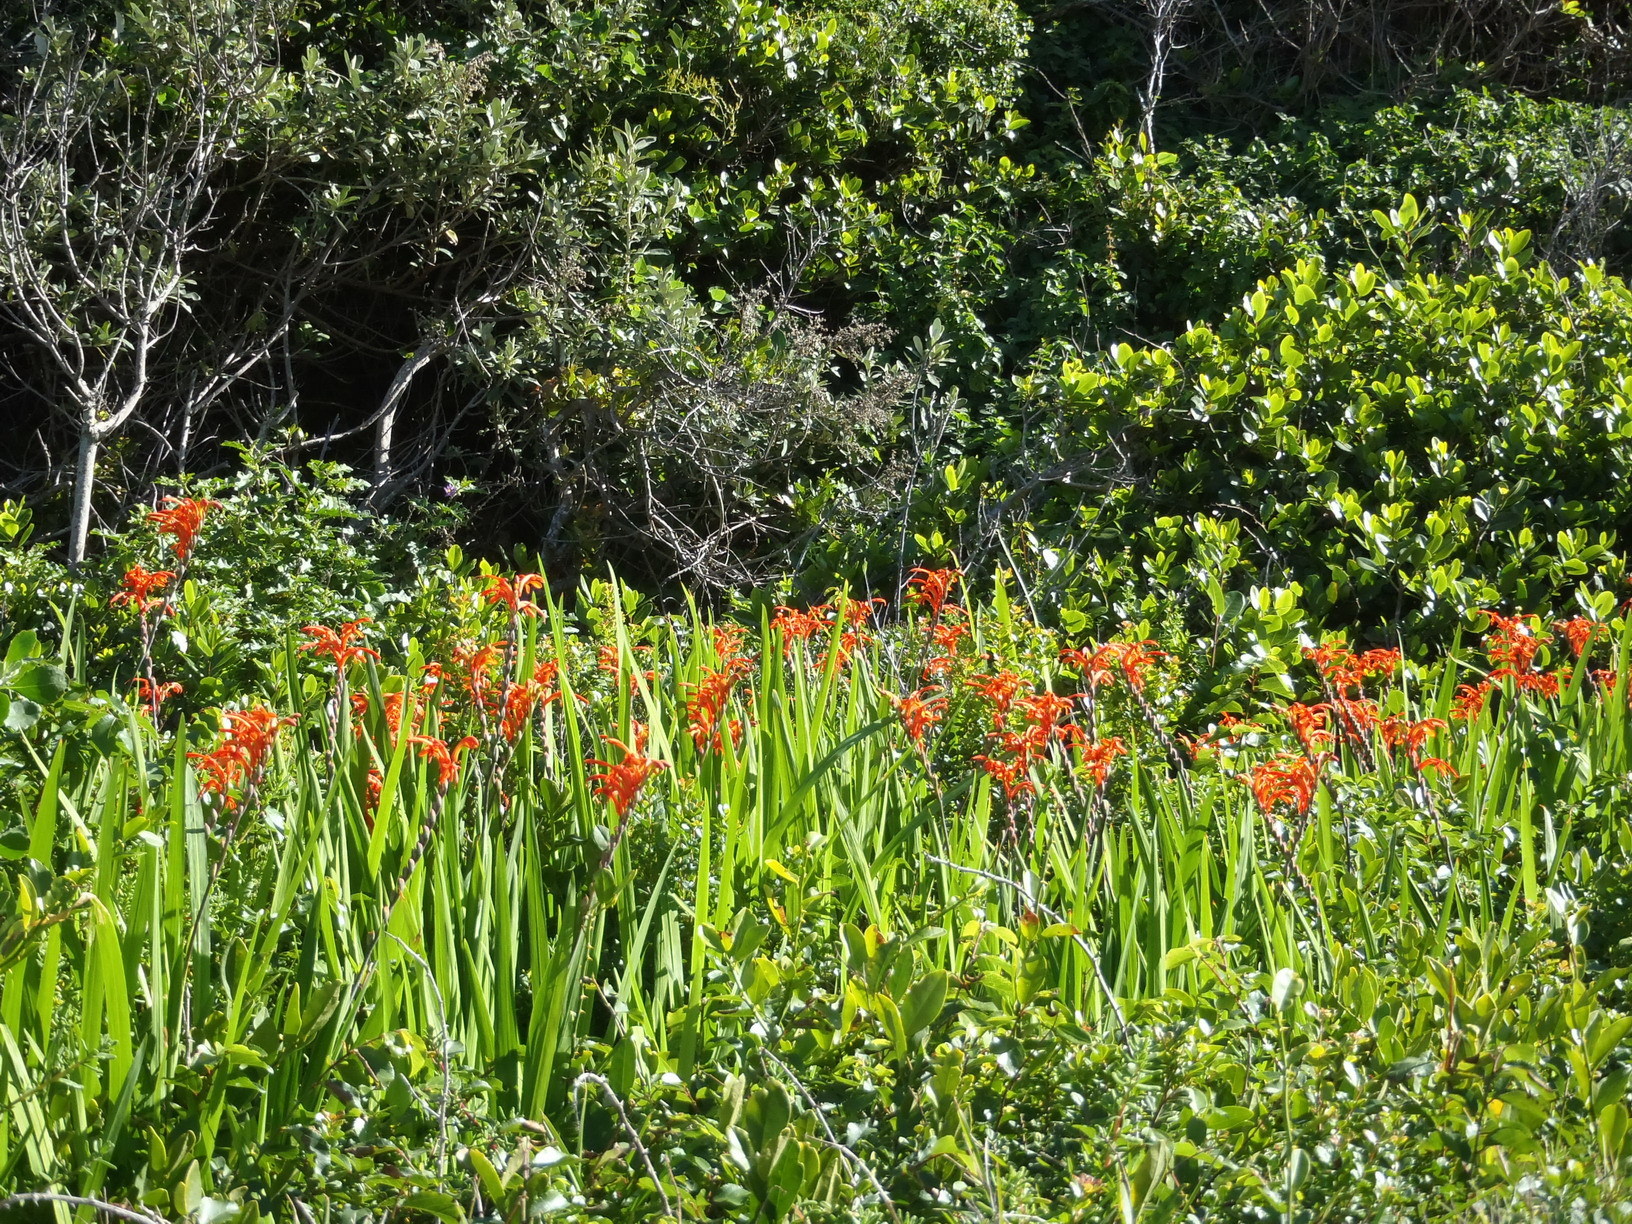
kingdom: Plantae
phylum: Tracheophyta
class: Liliopsida
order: Asparagales
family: Iridaceae
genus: Chasmanthe
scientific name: Chasmanthe aethiopica
